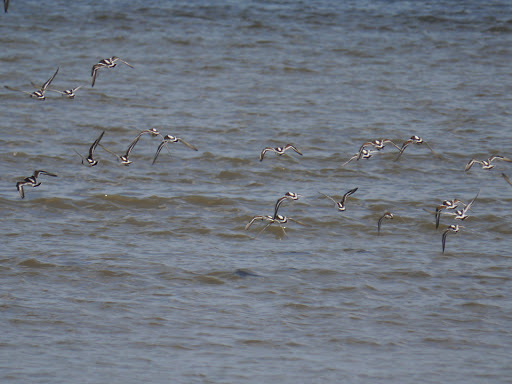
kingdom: Animalia
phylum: Chordata
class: Aves
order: Charadriiformes
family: Scolopacidae
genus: Arenaria
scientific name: Arenaria interpres
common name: Ruddy turnstone
